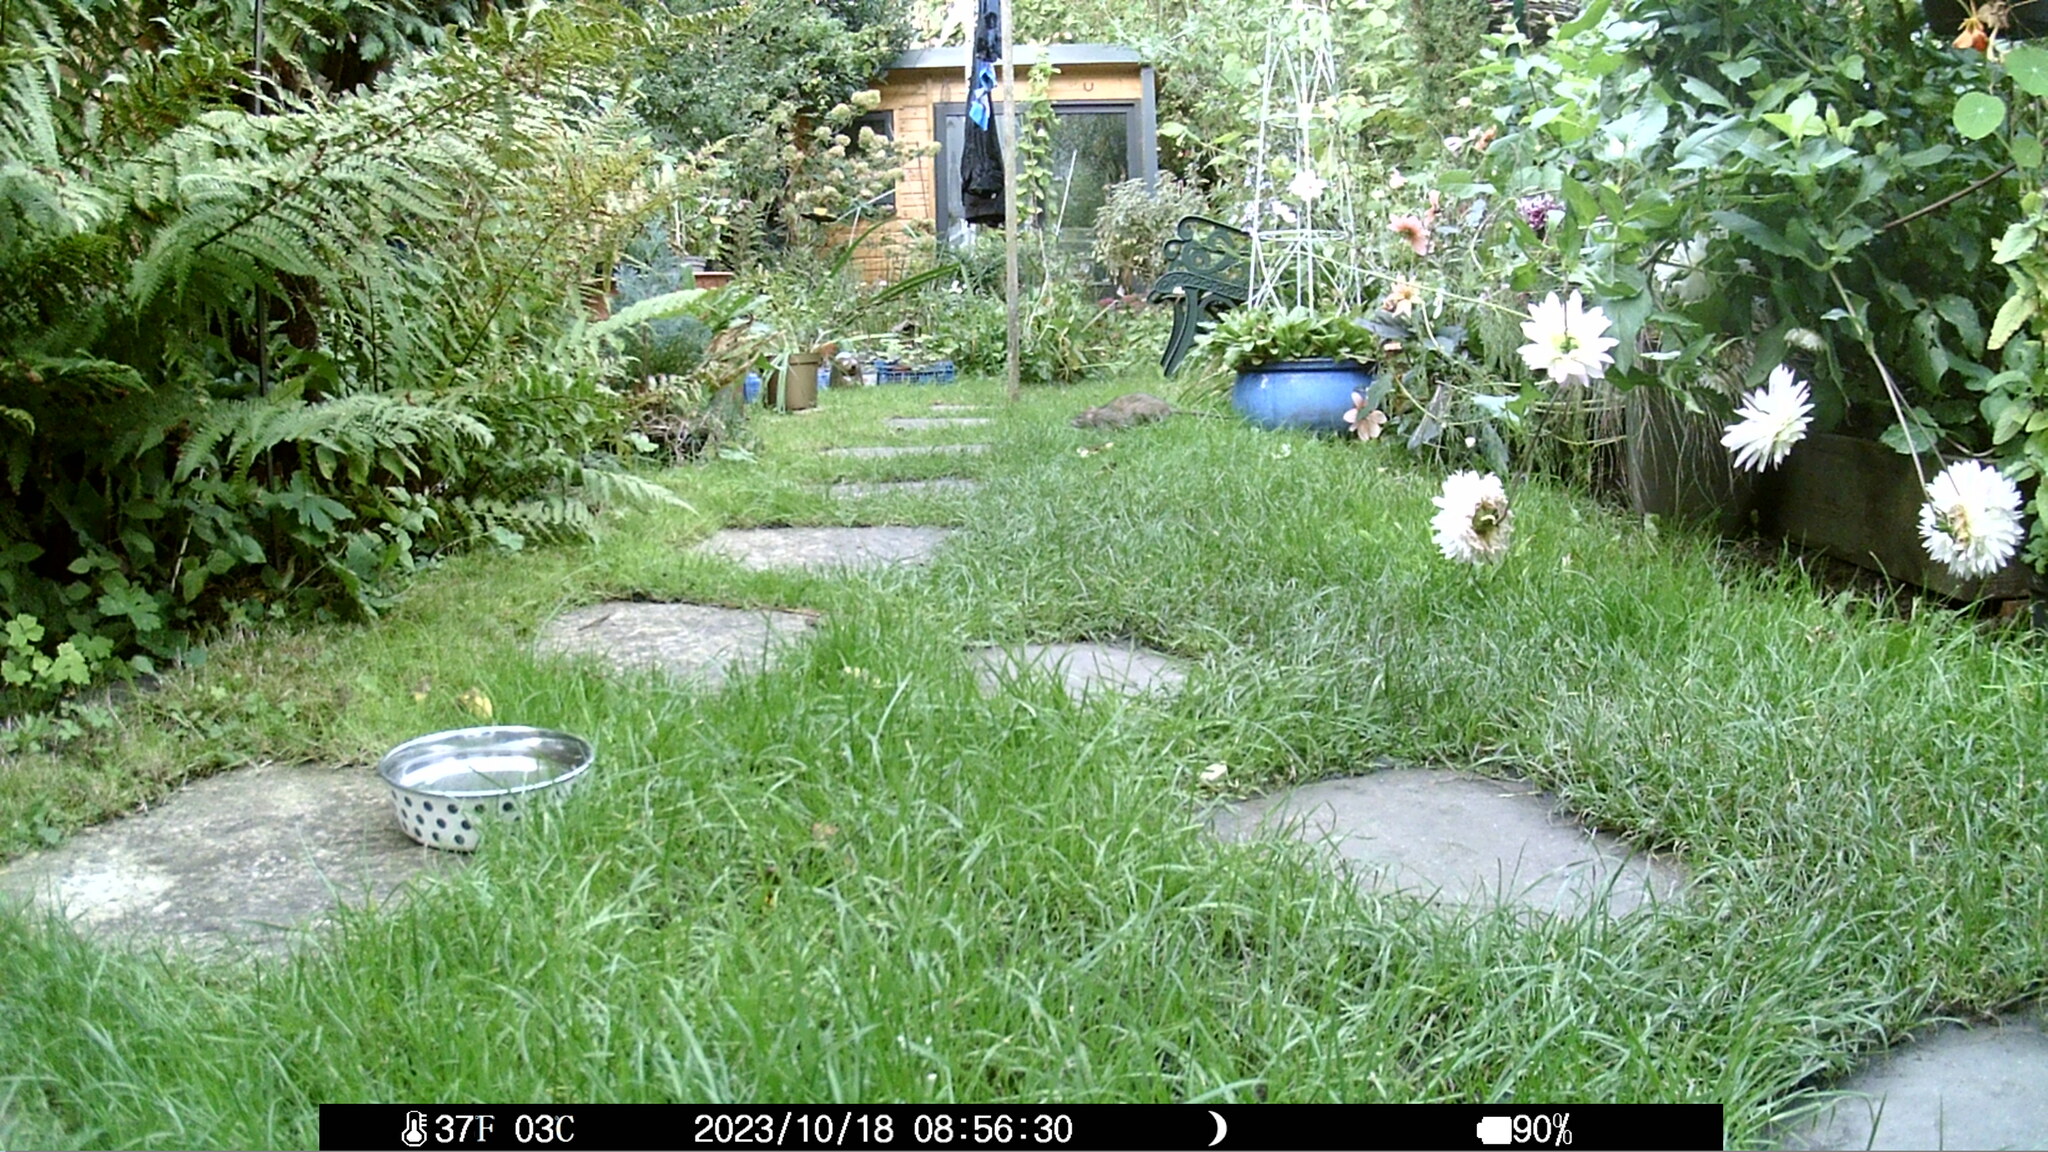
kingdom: Animalia
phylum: Chordata
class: Mammalia
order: Rodentia
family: Muridae
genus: Rattus
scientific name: Rattus norvegicus
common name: Brown rat
